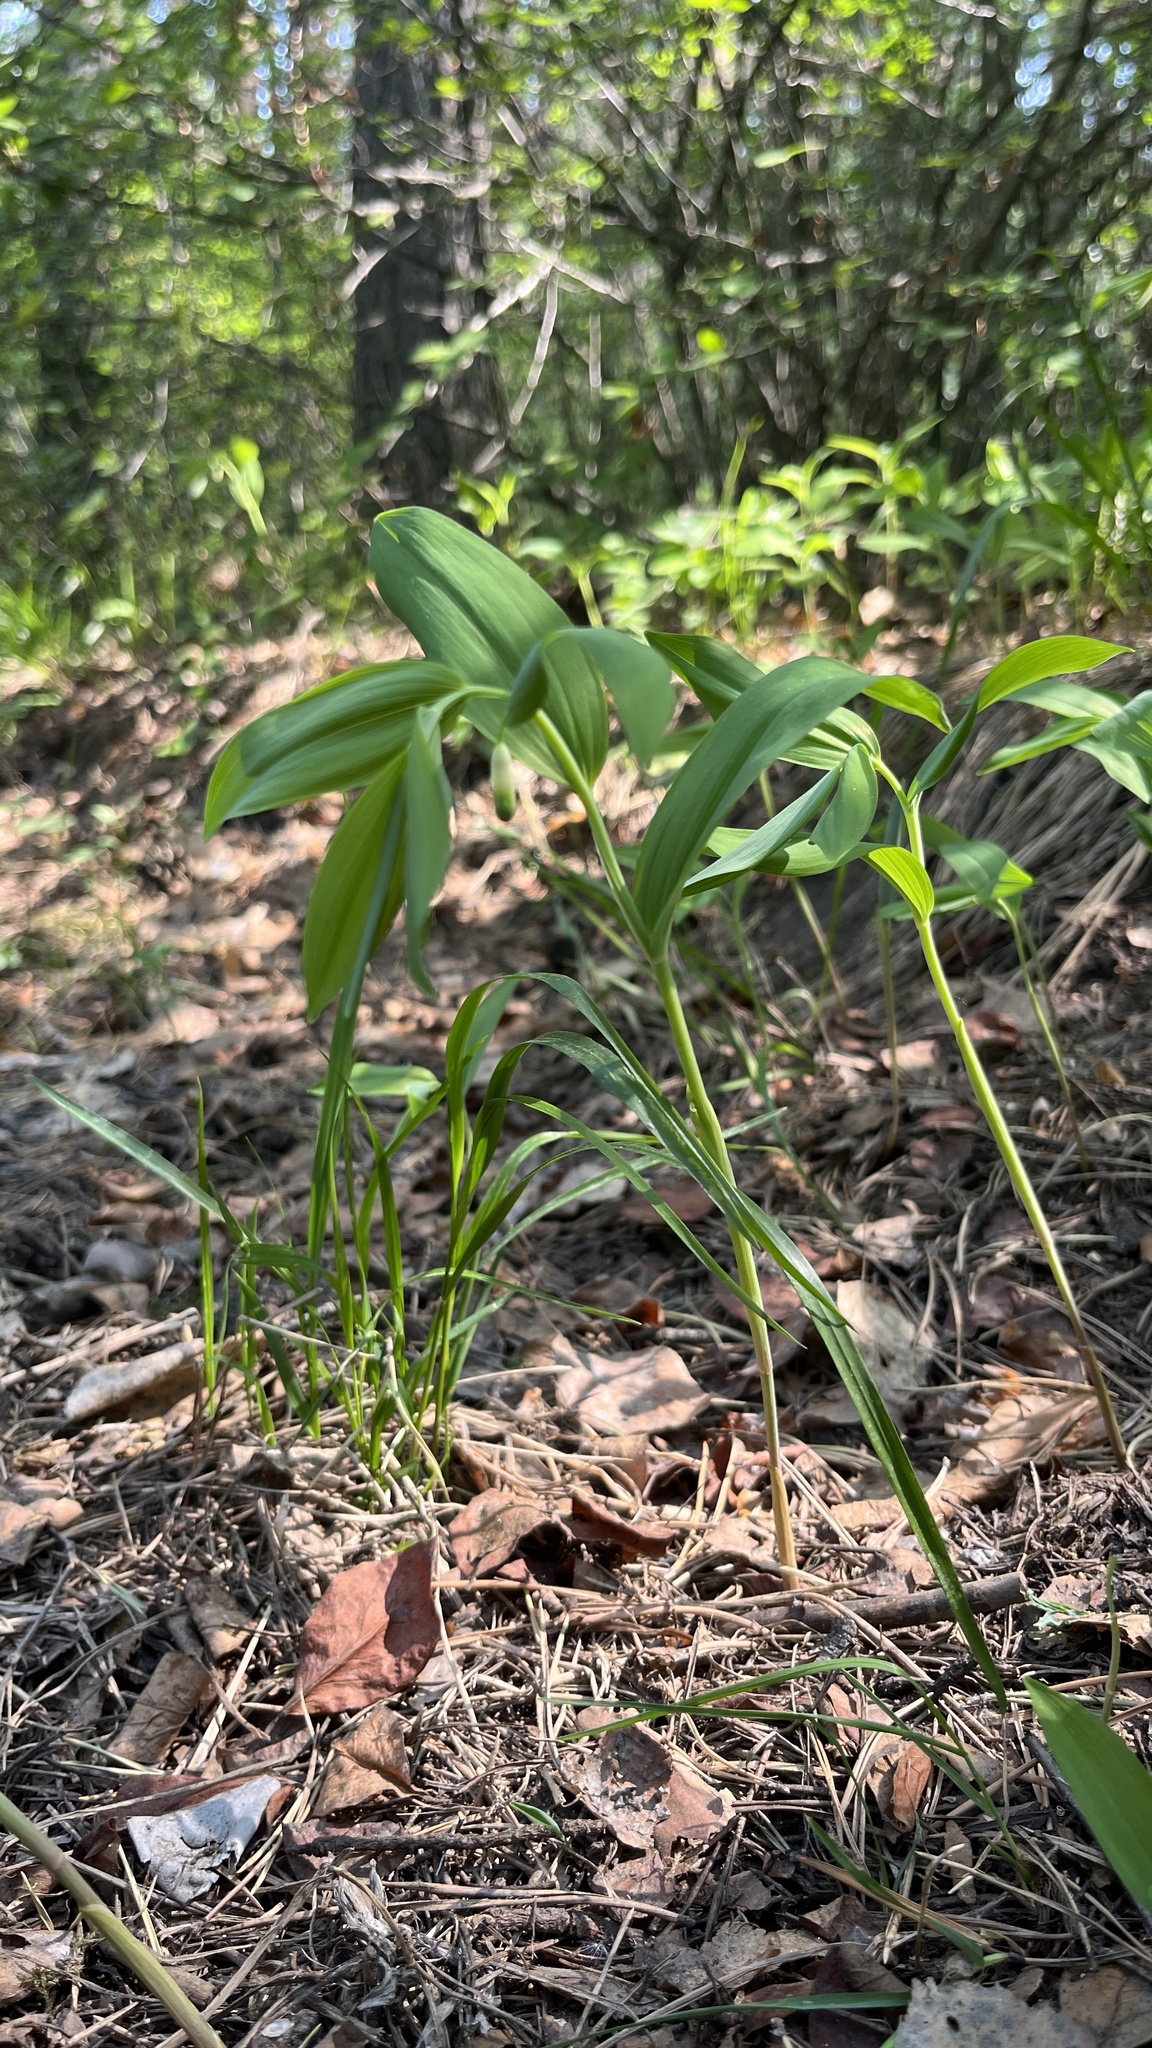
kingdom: Plantae
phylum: Tracheophyta
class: Liliopsida
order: Asparagales
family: Asparagaceae
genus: Polygonatum
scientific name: Polygonatum odoratum
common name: Angular solomon's-seal
